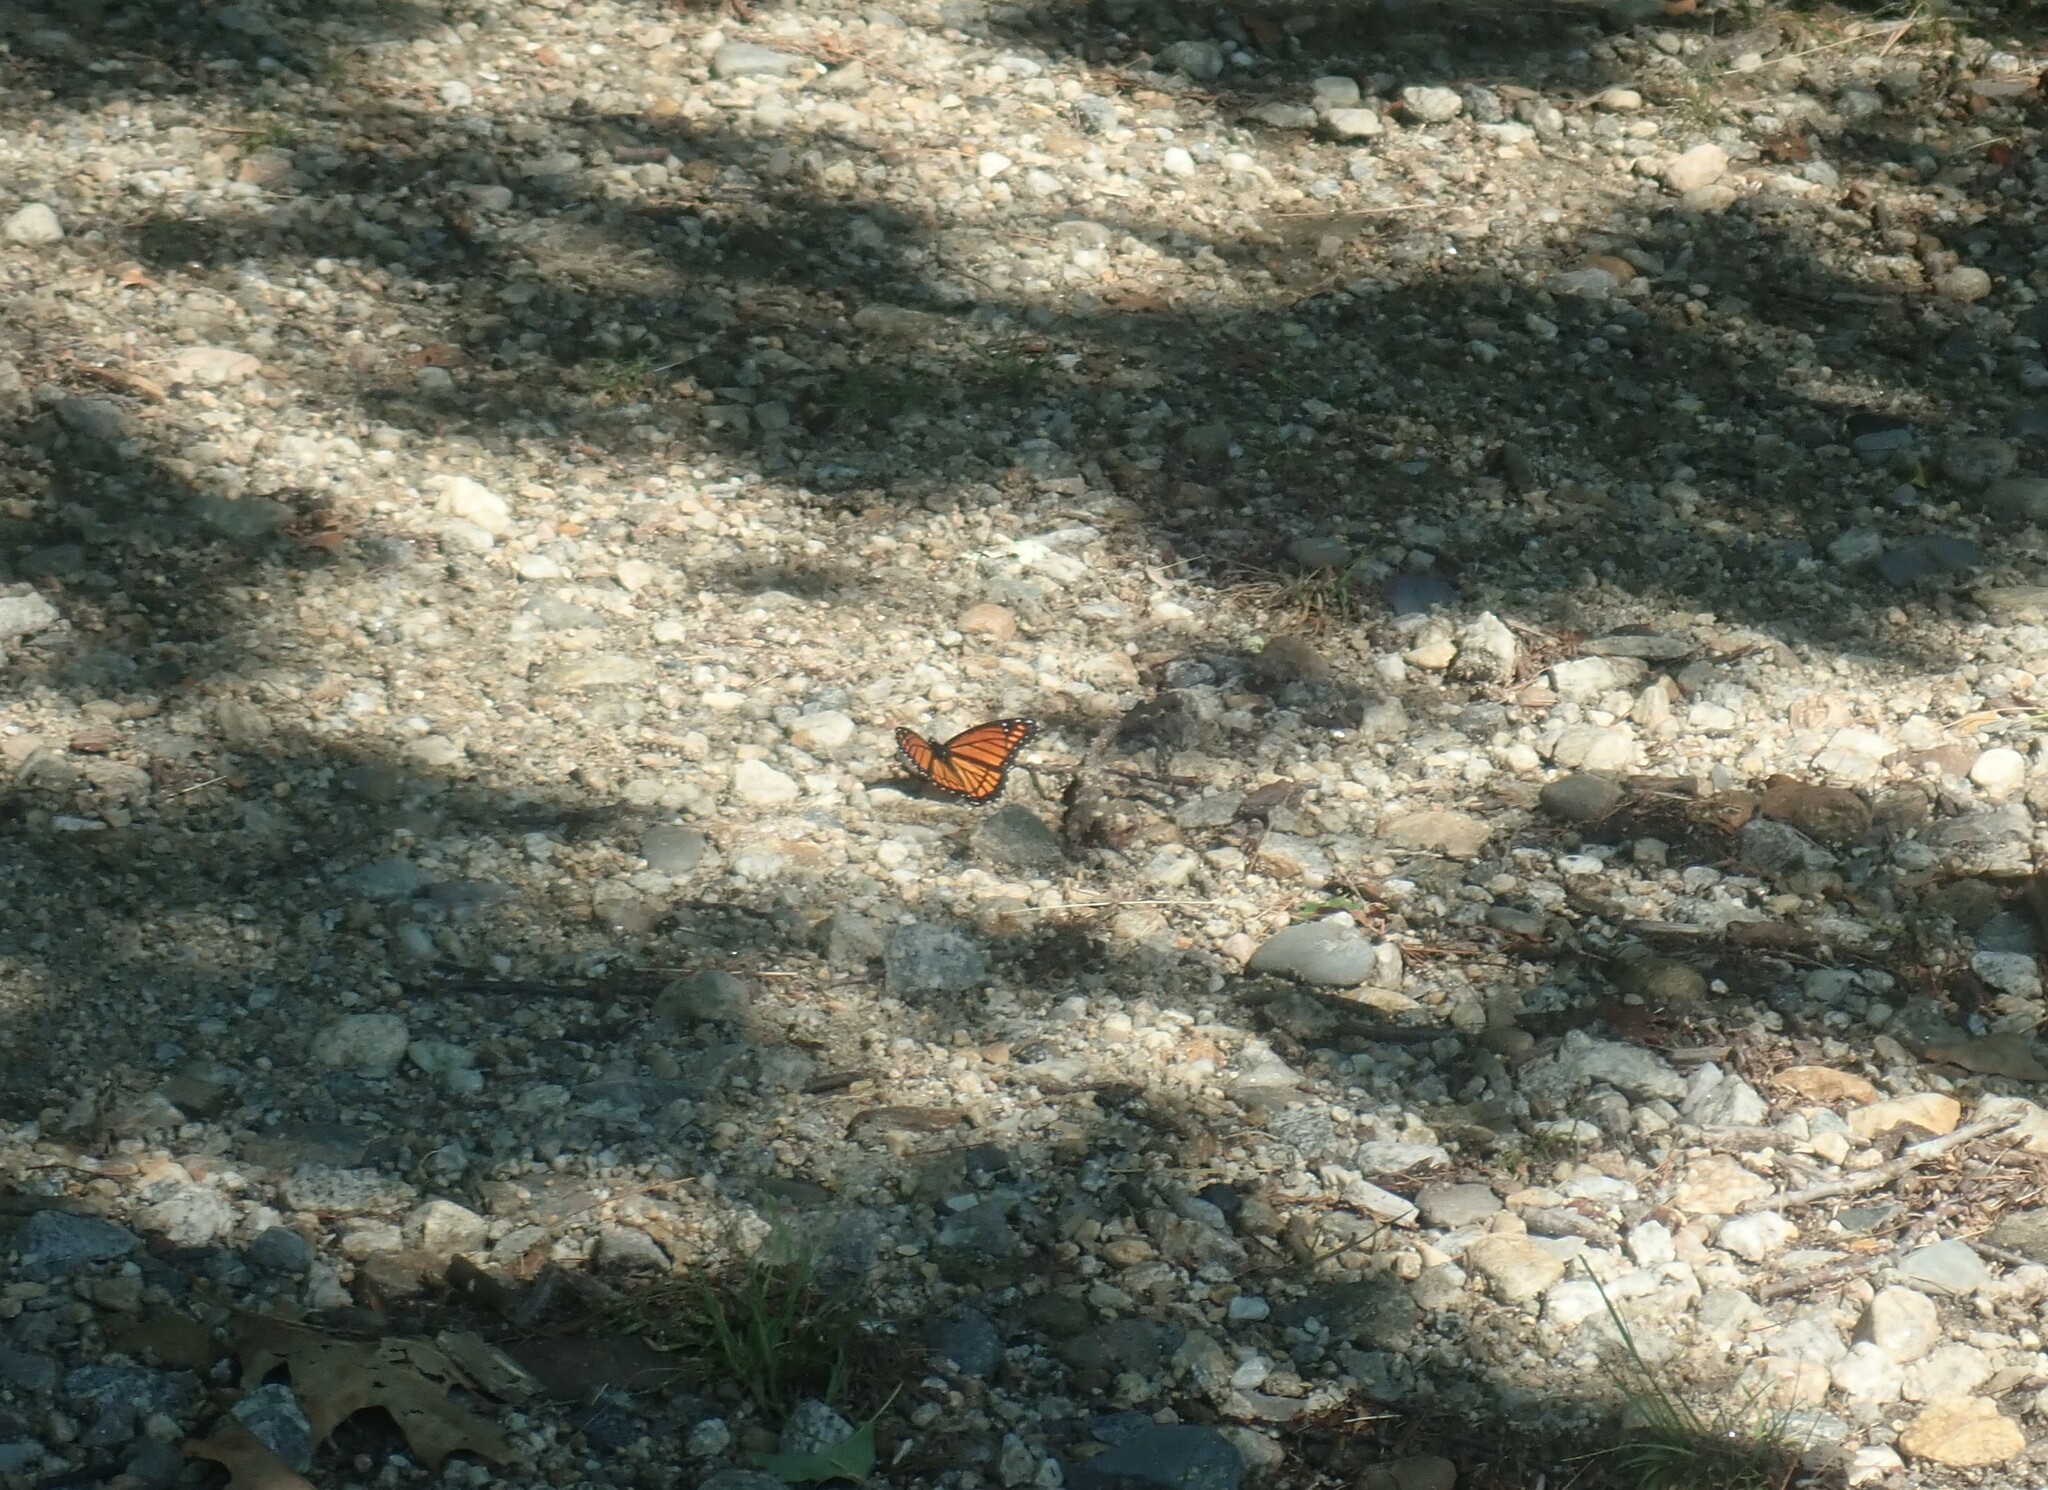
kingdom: Animalia
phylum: Arthropoda
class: Insecta
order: Lepidoptera
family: Nymphalidae
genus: Limenitis
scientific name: Limenitis archippus
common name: Viceroy
